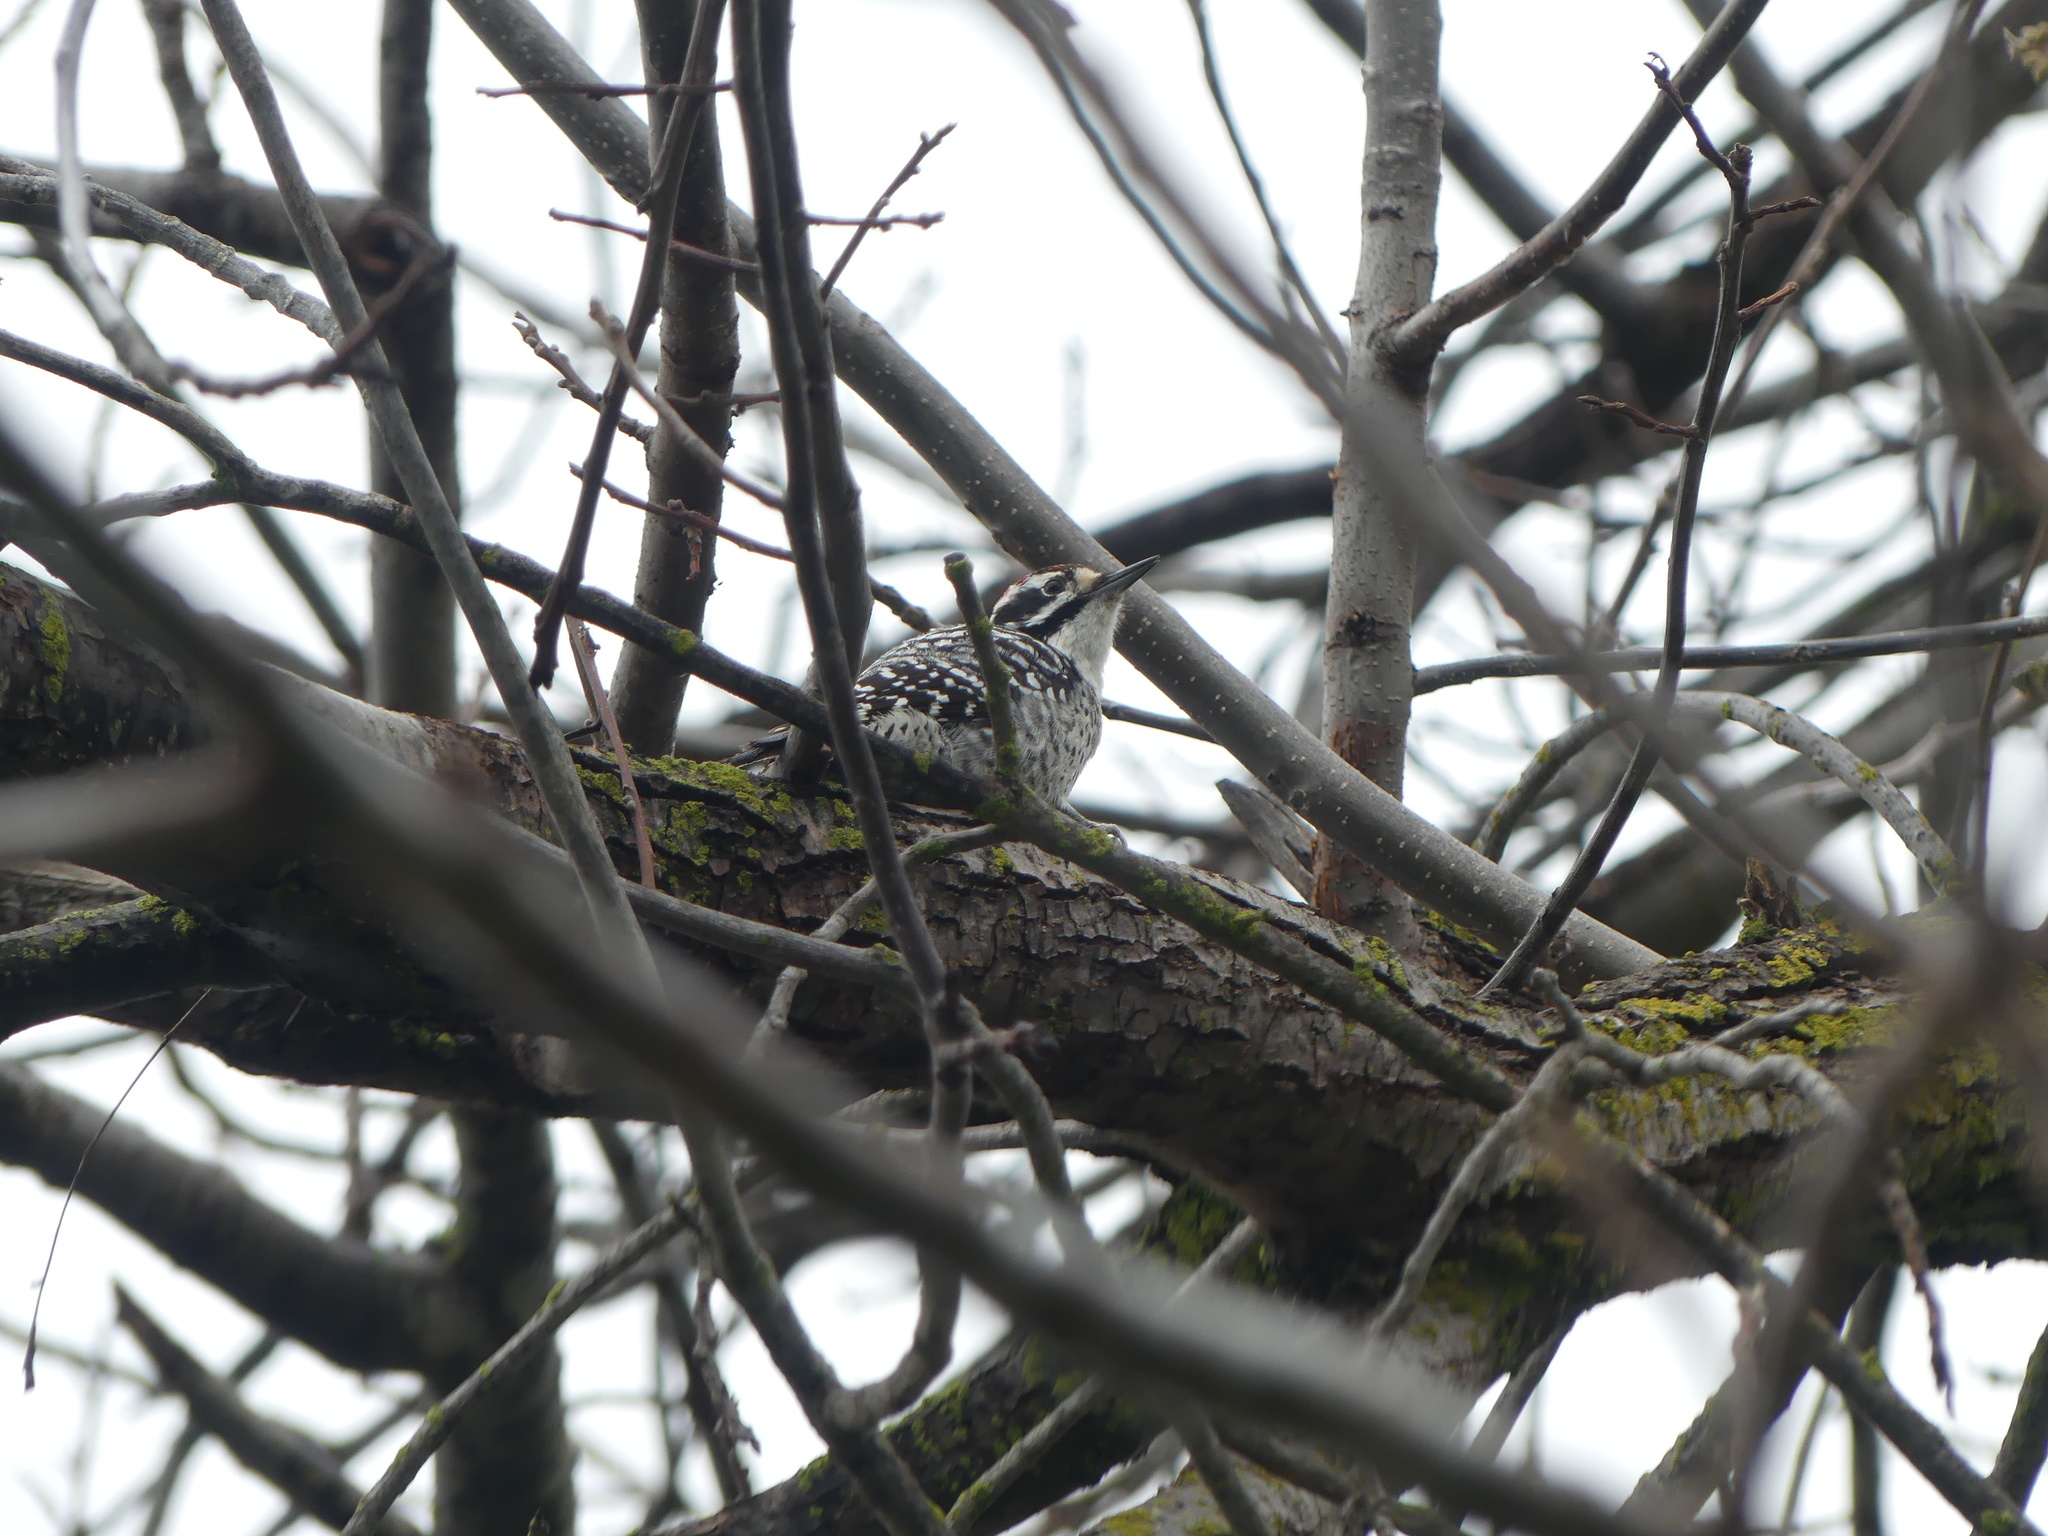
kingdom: Animalia
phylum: Chordata
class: Aves
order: Piciformes
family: Picidae
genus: Dryobates
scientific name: Dryobates nuttallii
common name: Nuttall's woodpecker
